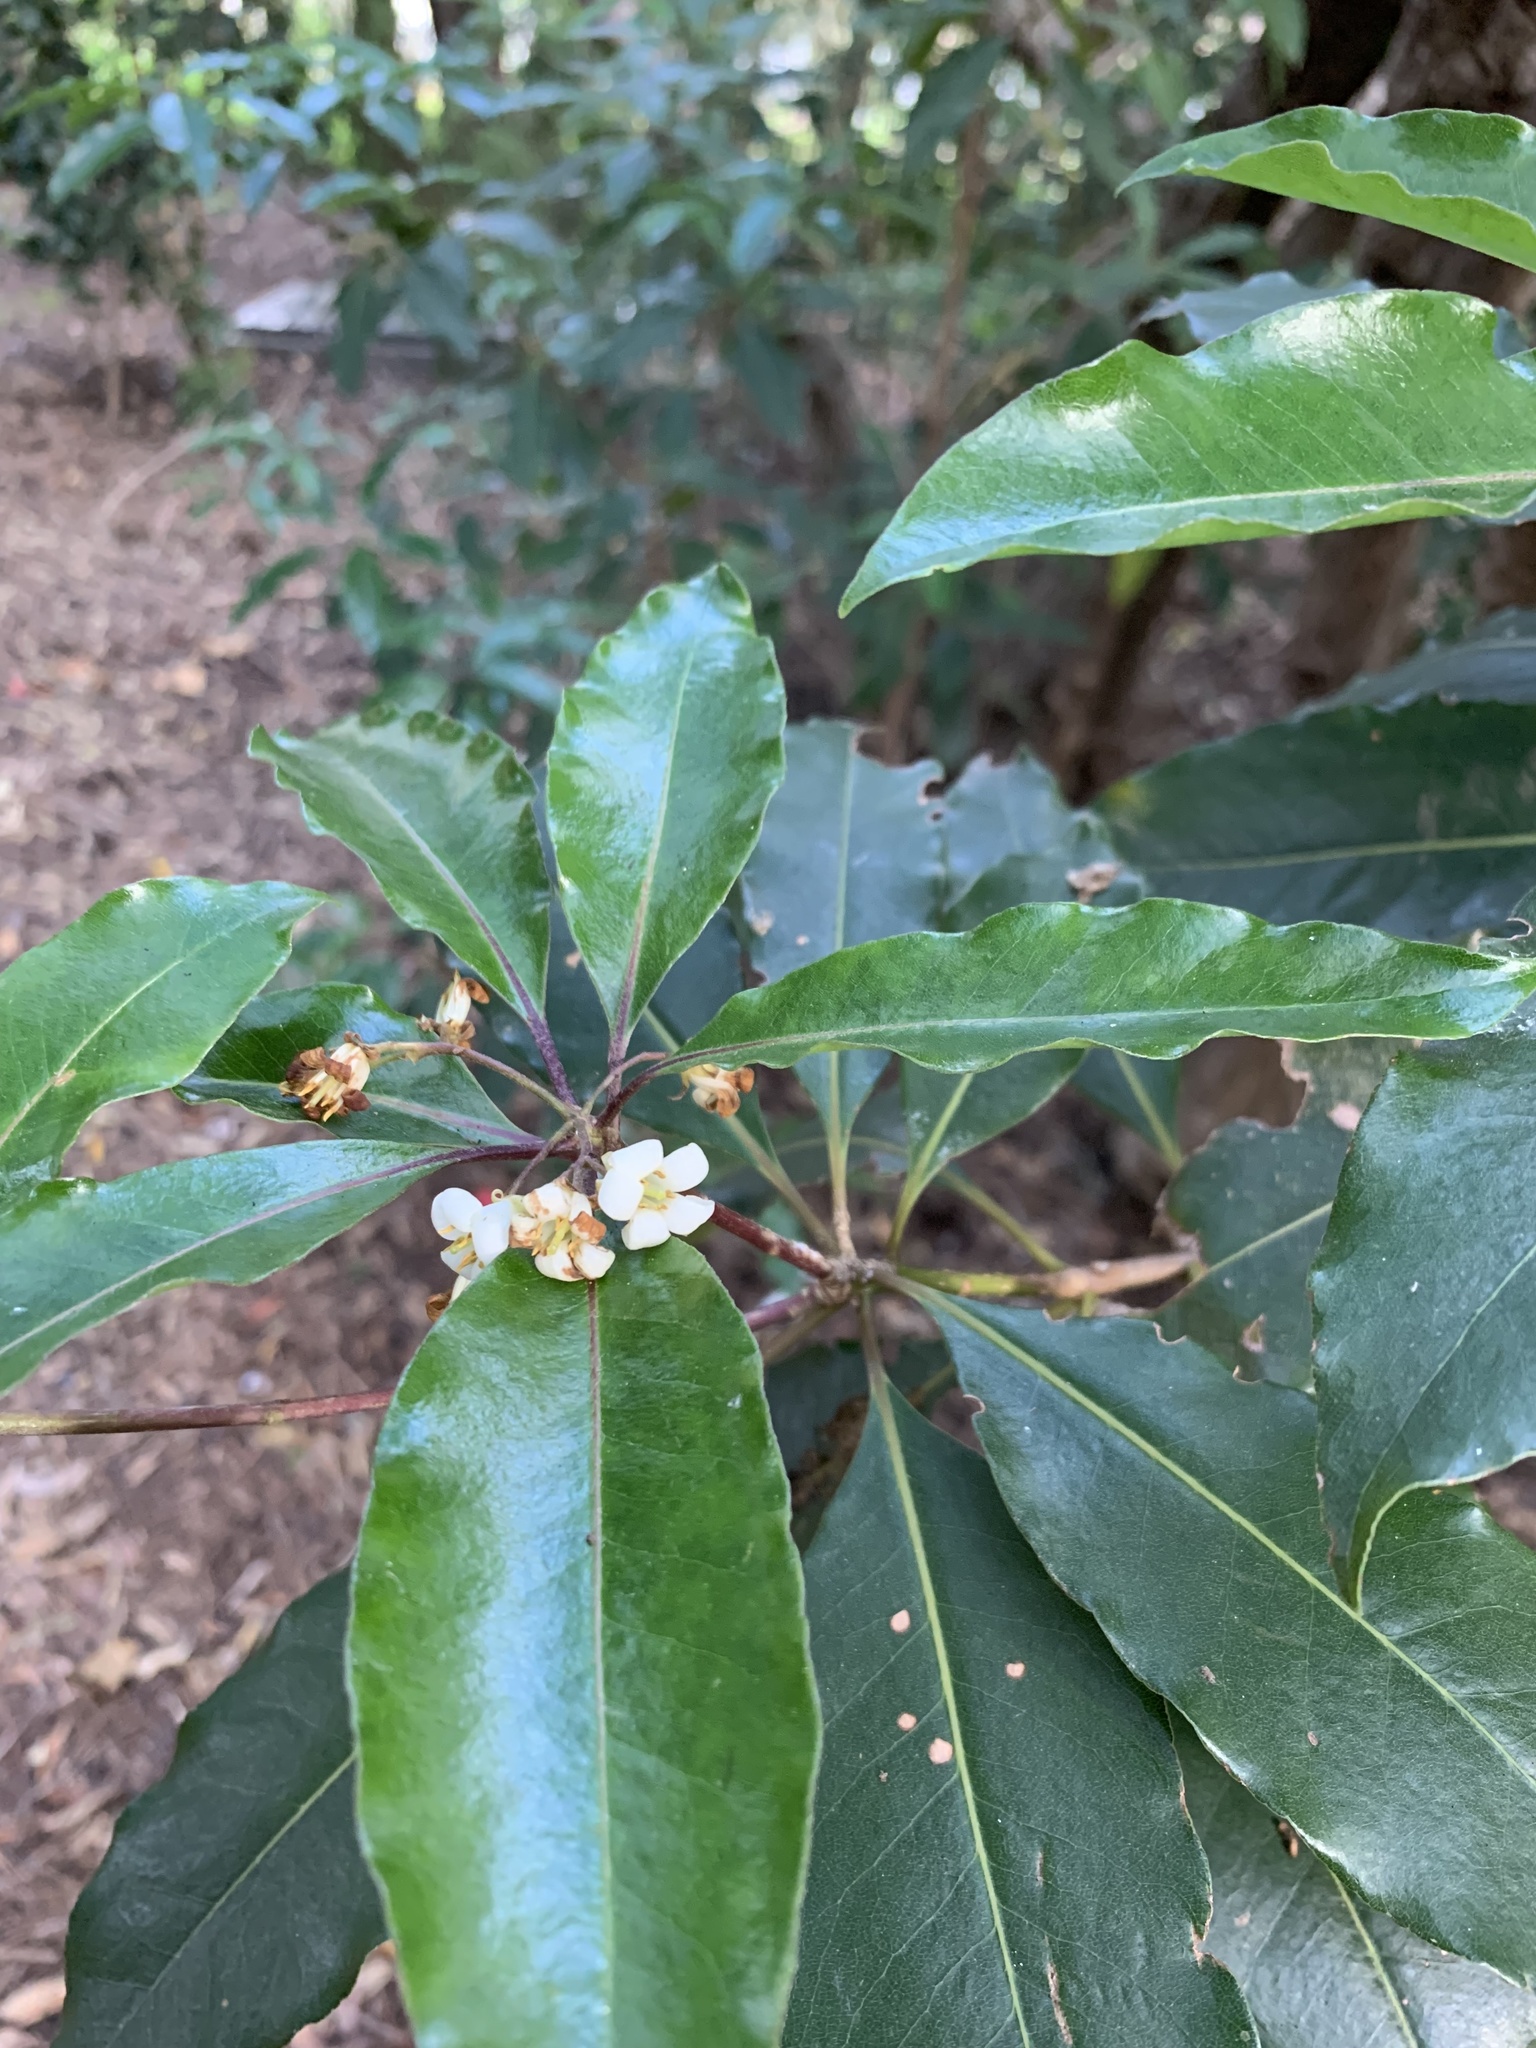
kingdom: Plantae
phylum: Tracheophyta
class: Magnoliopsida
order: Apiales
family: Pittosporaceae
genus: Pittosporum
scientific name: Pittosporum undulatum
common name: Australian cheesewood
